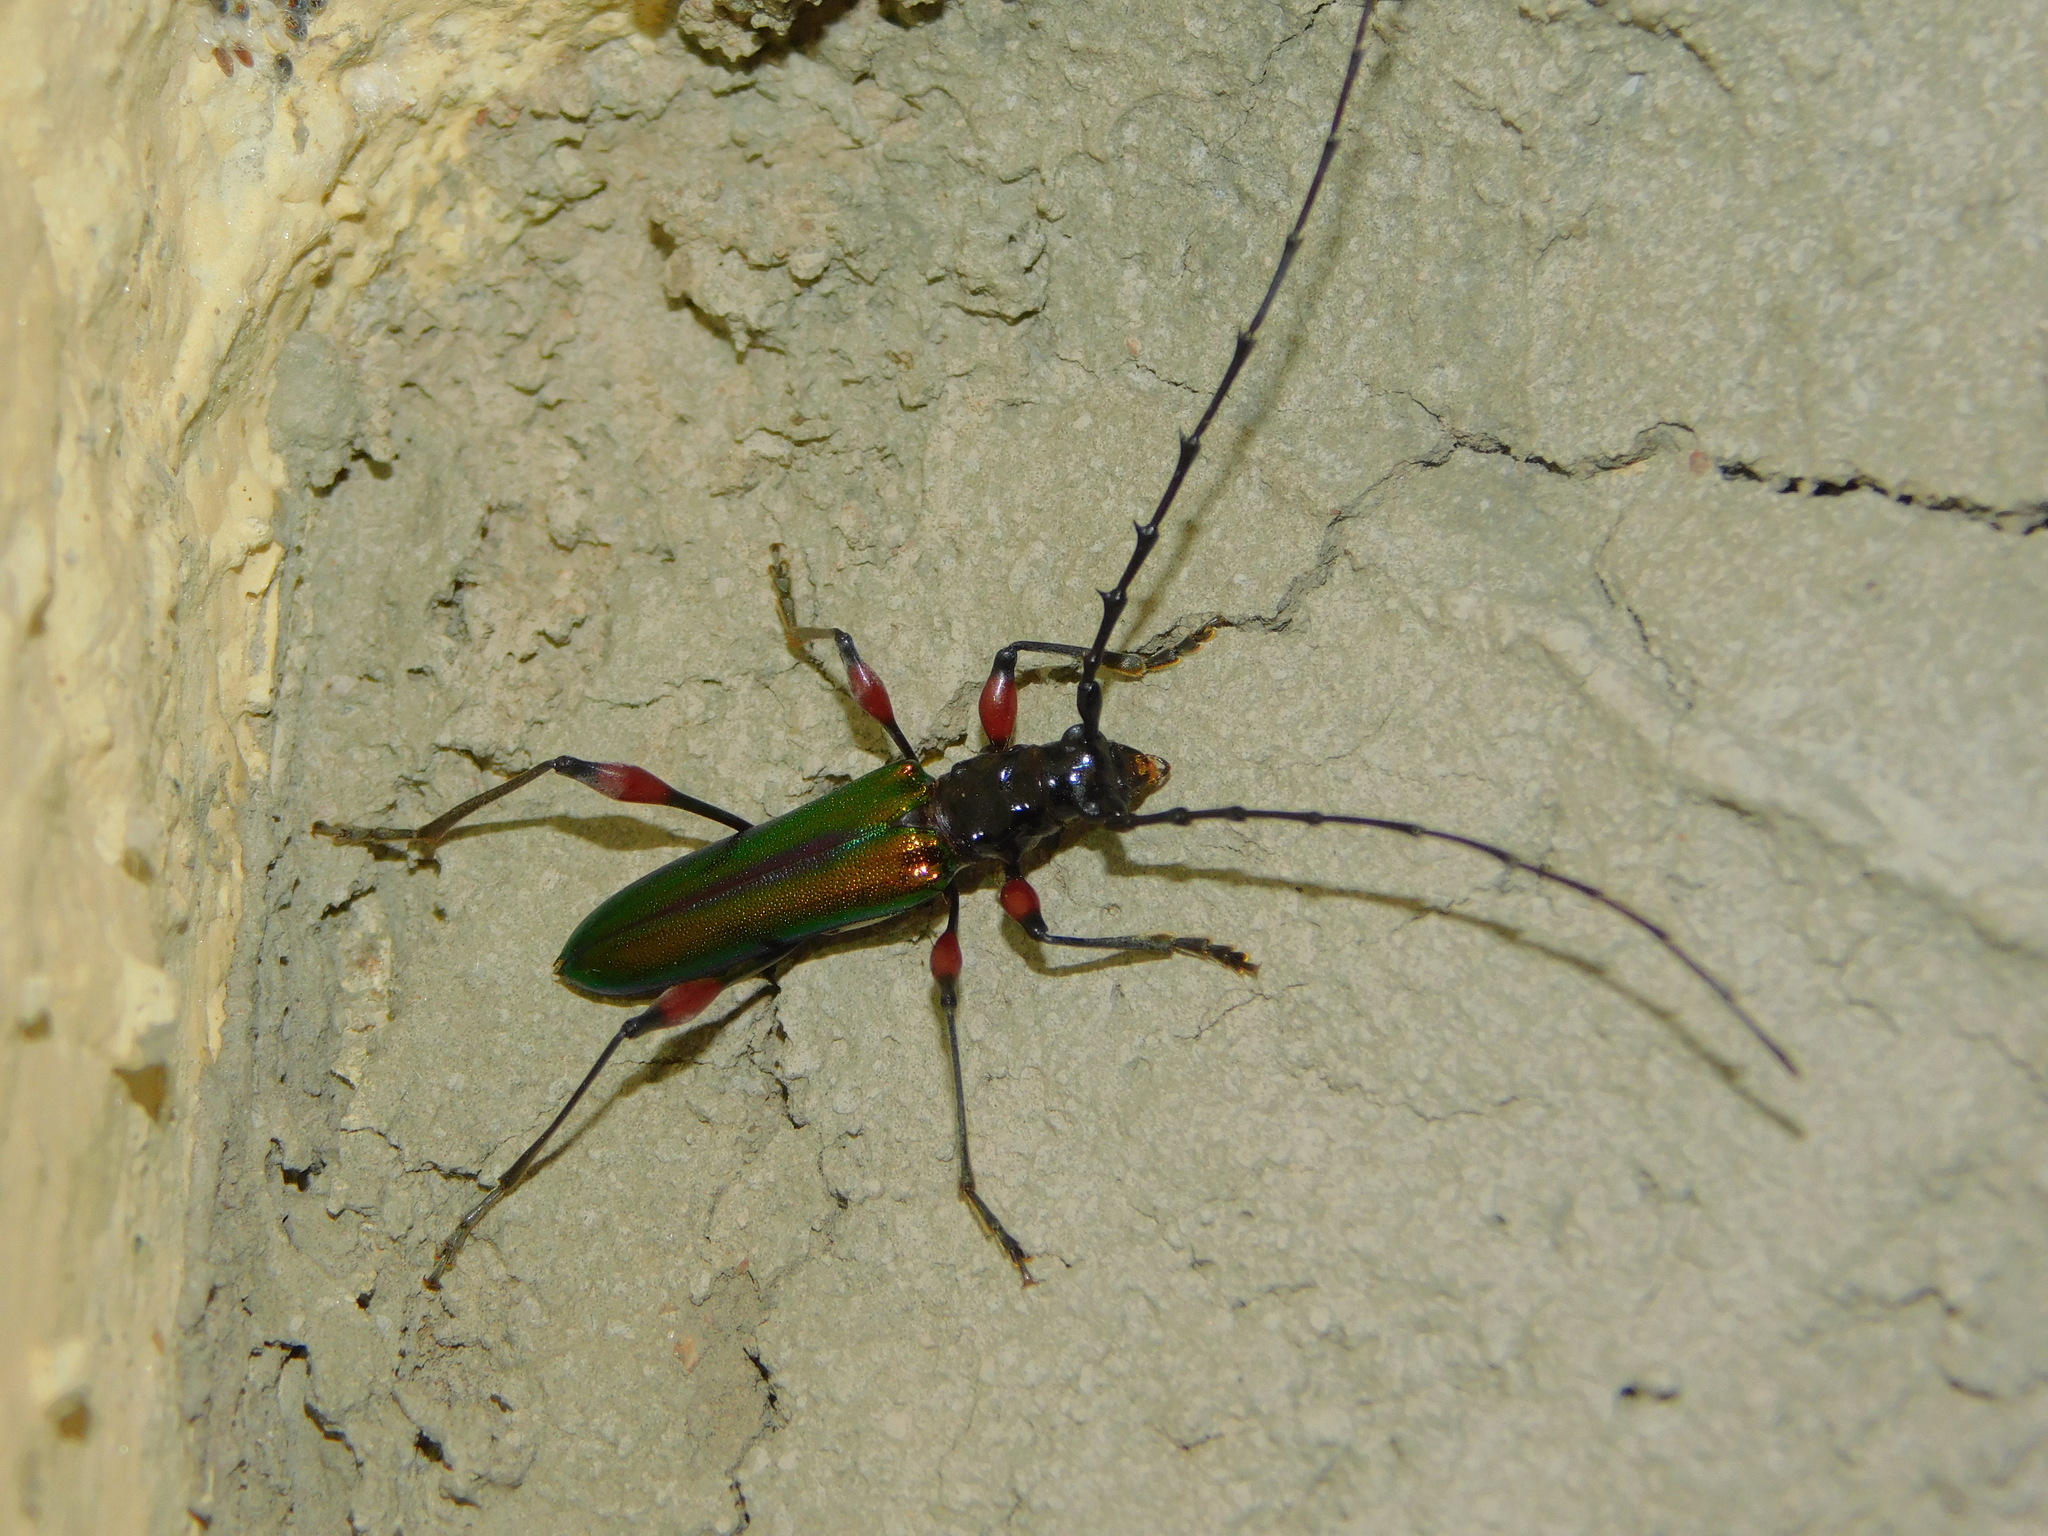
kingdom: Animalia
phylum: Arthropoda
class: Insecta
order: Coleoptera
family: Cerambycidae
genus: Cordylomera
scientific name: Cordylomera spinicornis
